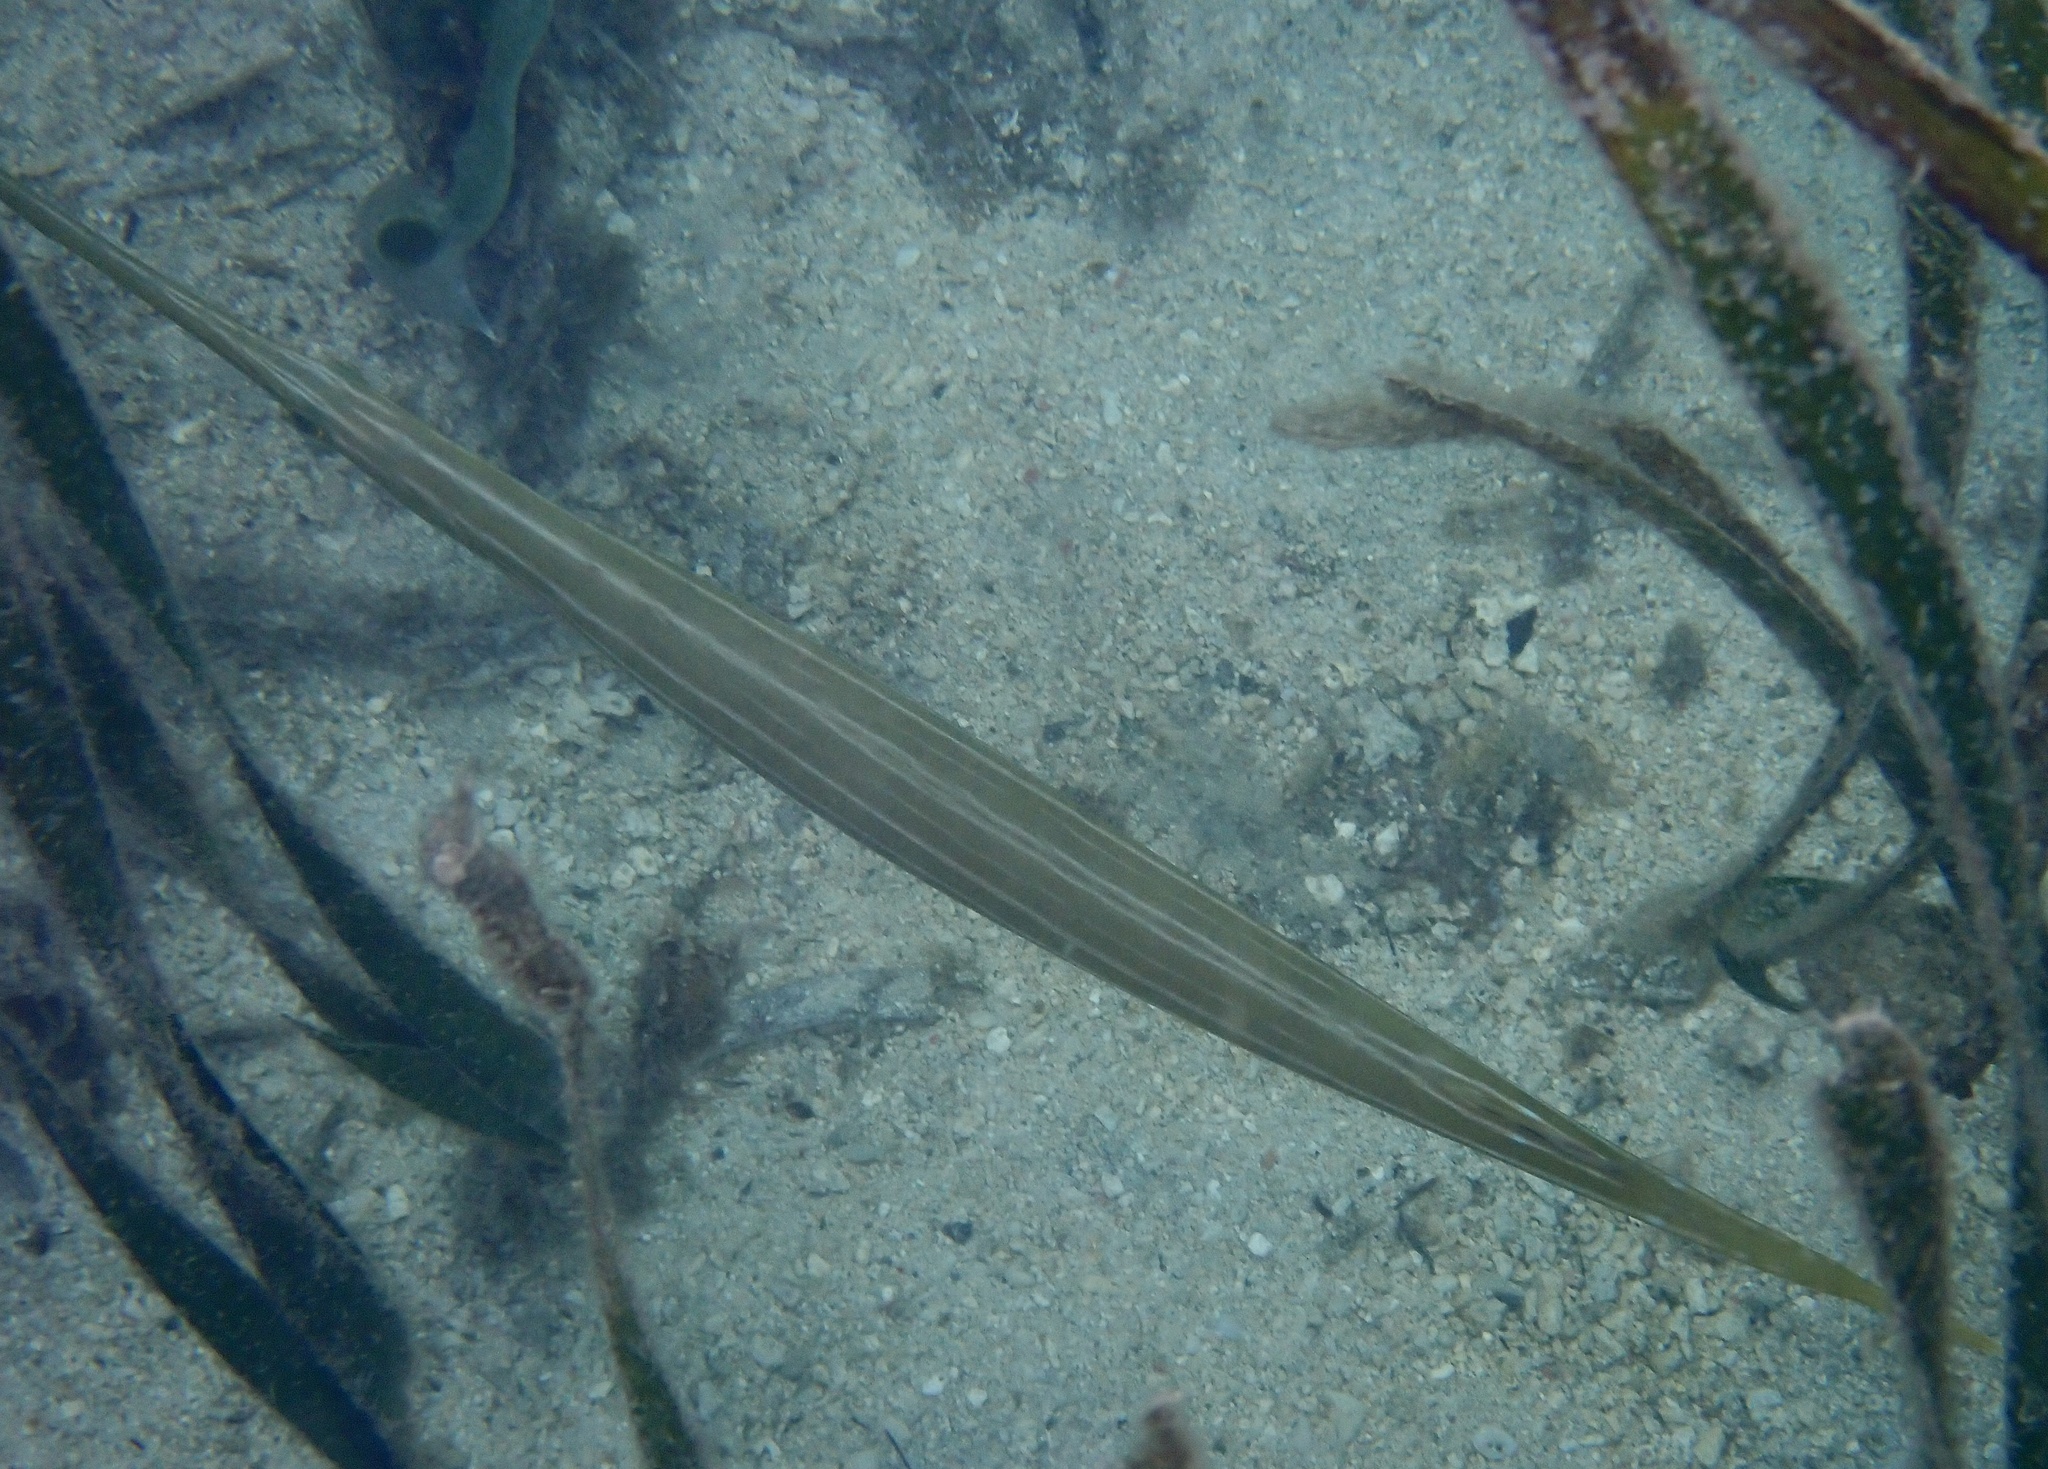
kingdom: Animalia
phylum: Chordata
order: Syngnathiformes
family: Aulostomidae
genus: Aulostomus
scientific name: Aulostomus chinensis
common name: Chinese trumpetfish
